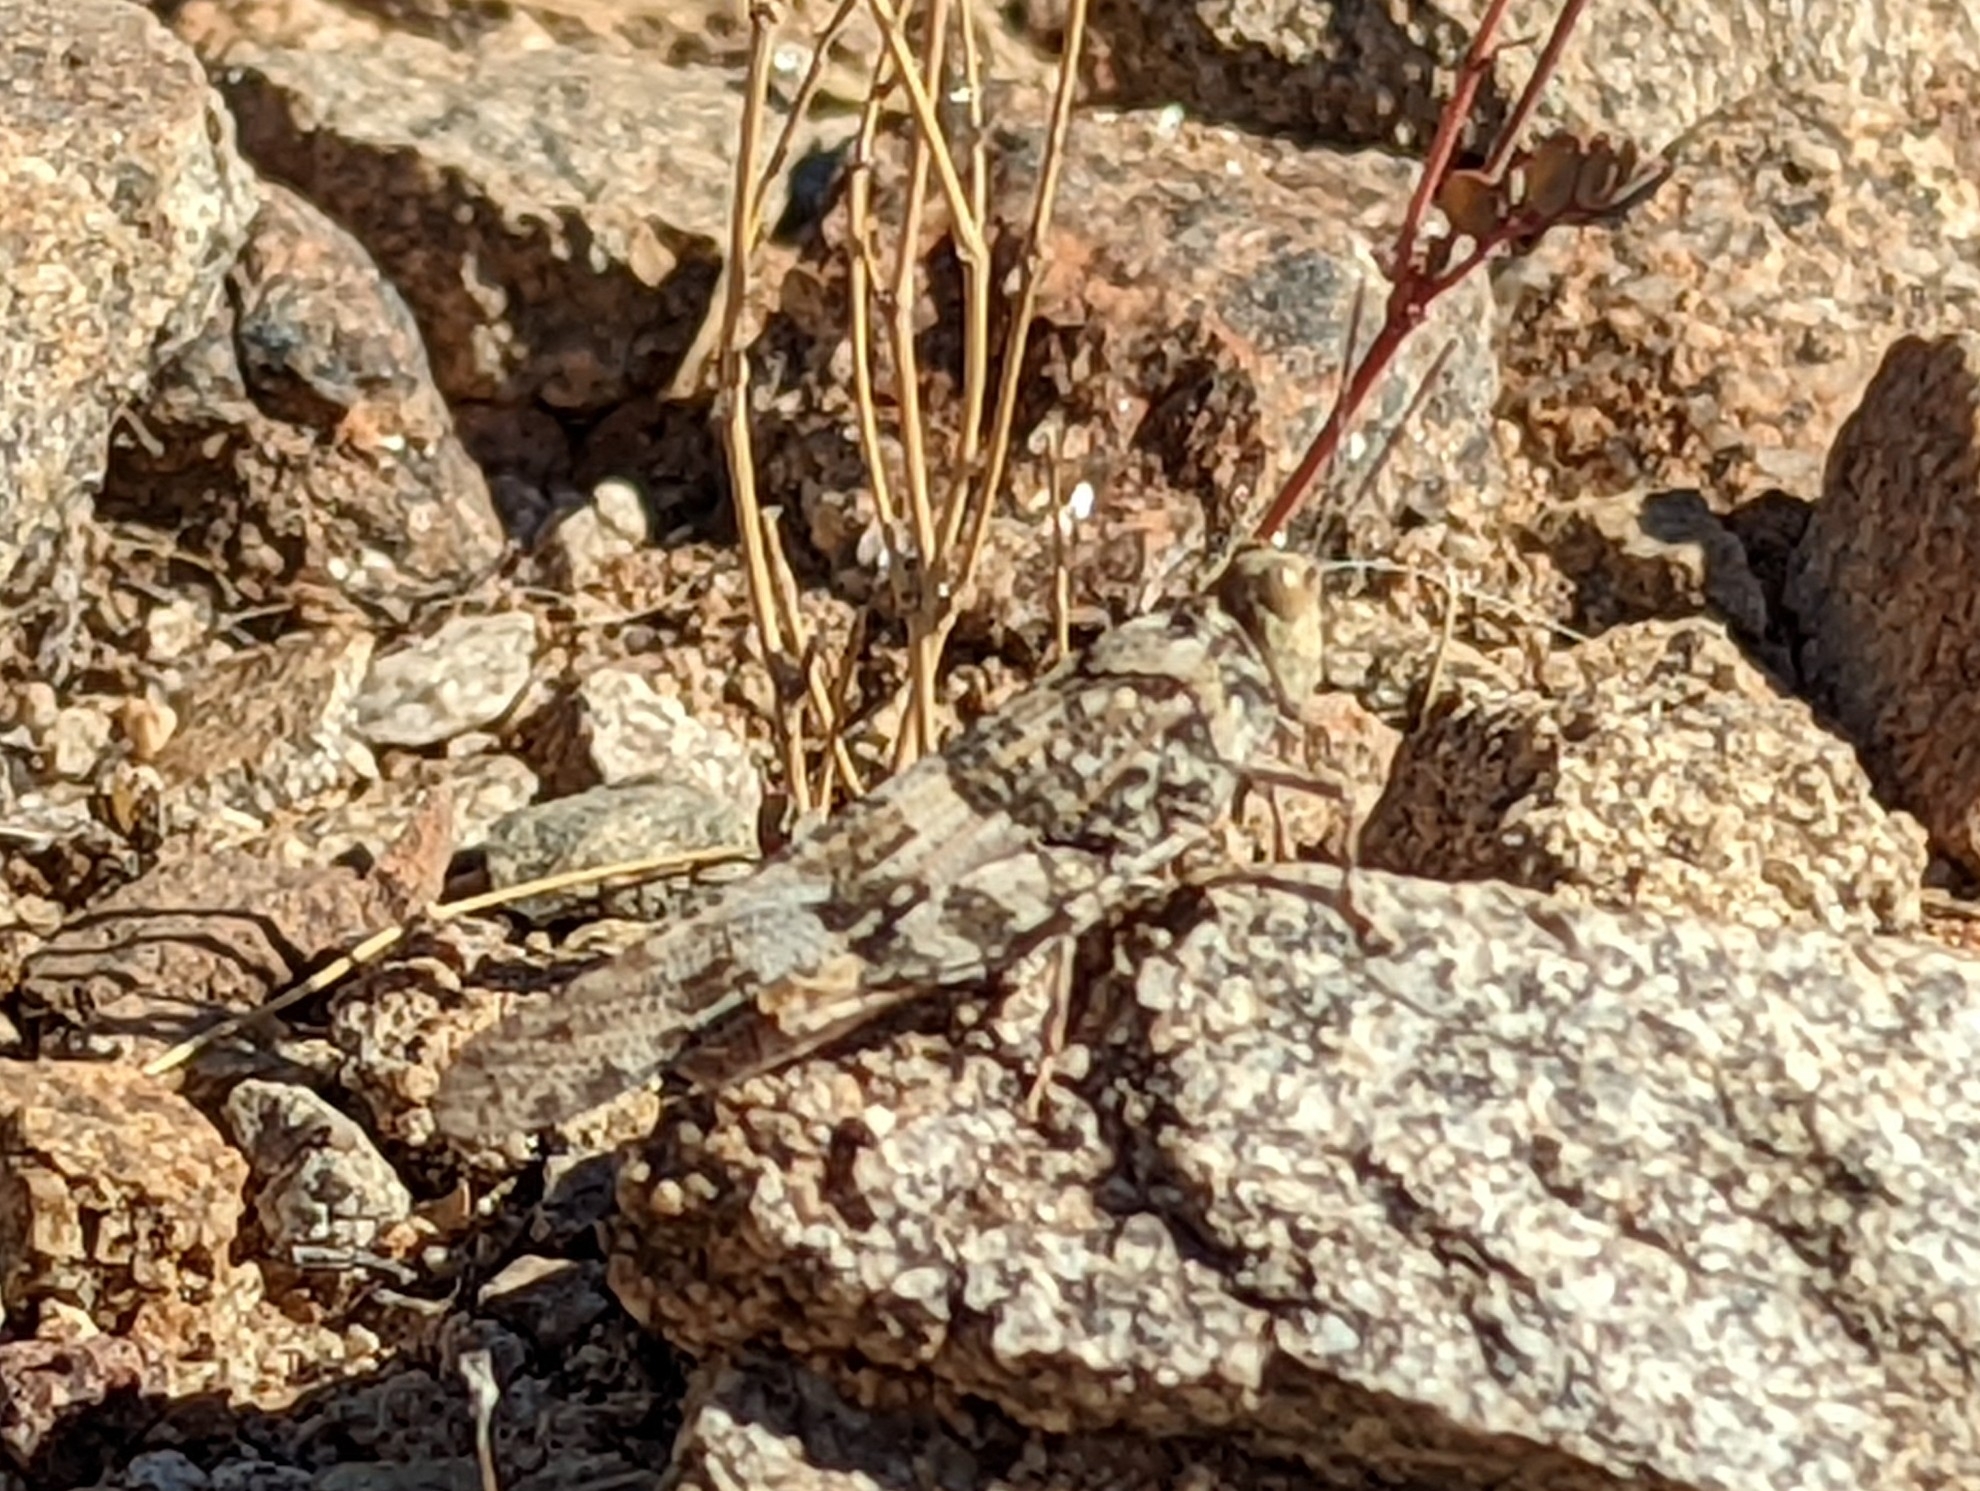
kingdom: Animalia
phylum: Arthropoda
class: Insecta
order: Orthoptera
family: Acrididae
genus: Trimerotropis
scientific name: Trimerotropis pallidipennis
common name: Pallid-winged grasshopper
